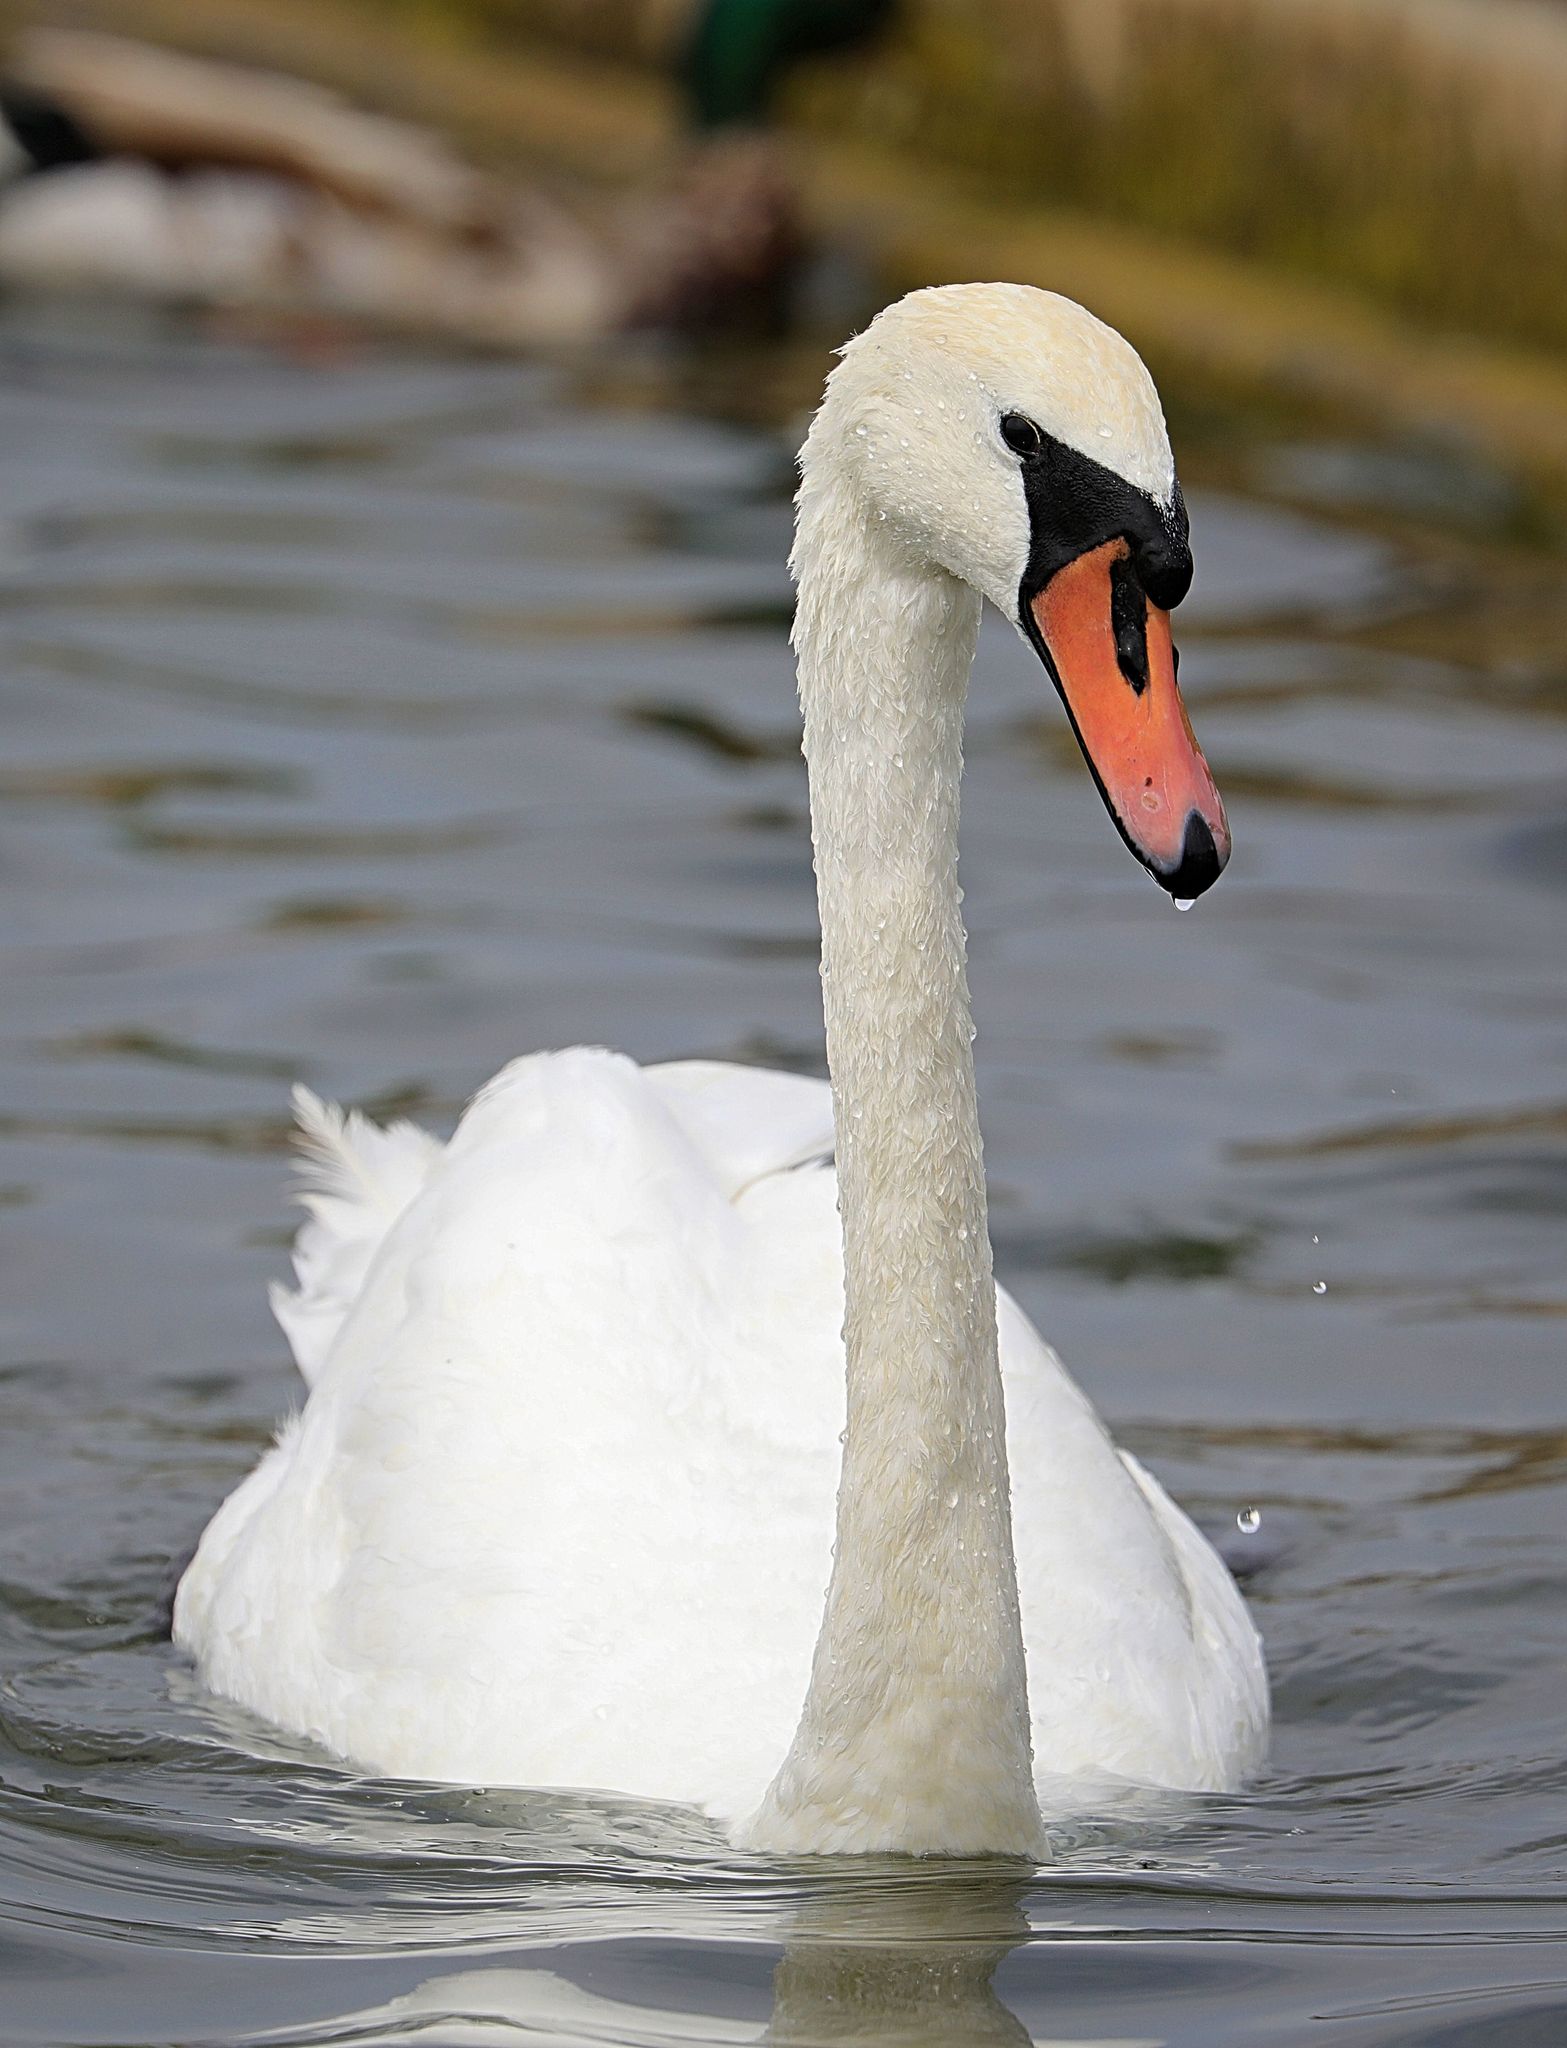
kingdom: Animalia
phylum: Chordata
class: Aves
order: Anseriformes
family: Anatidae
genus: Cygnus
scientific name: Cygnus olor
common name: Mute swan
